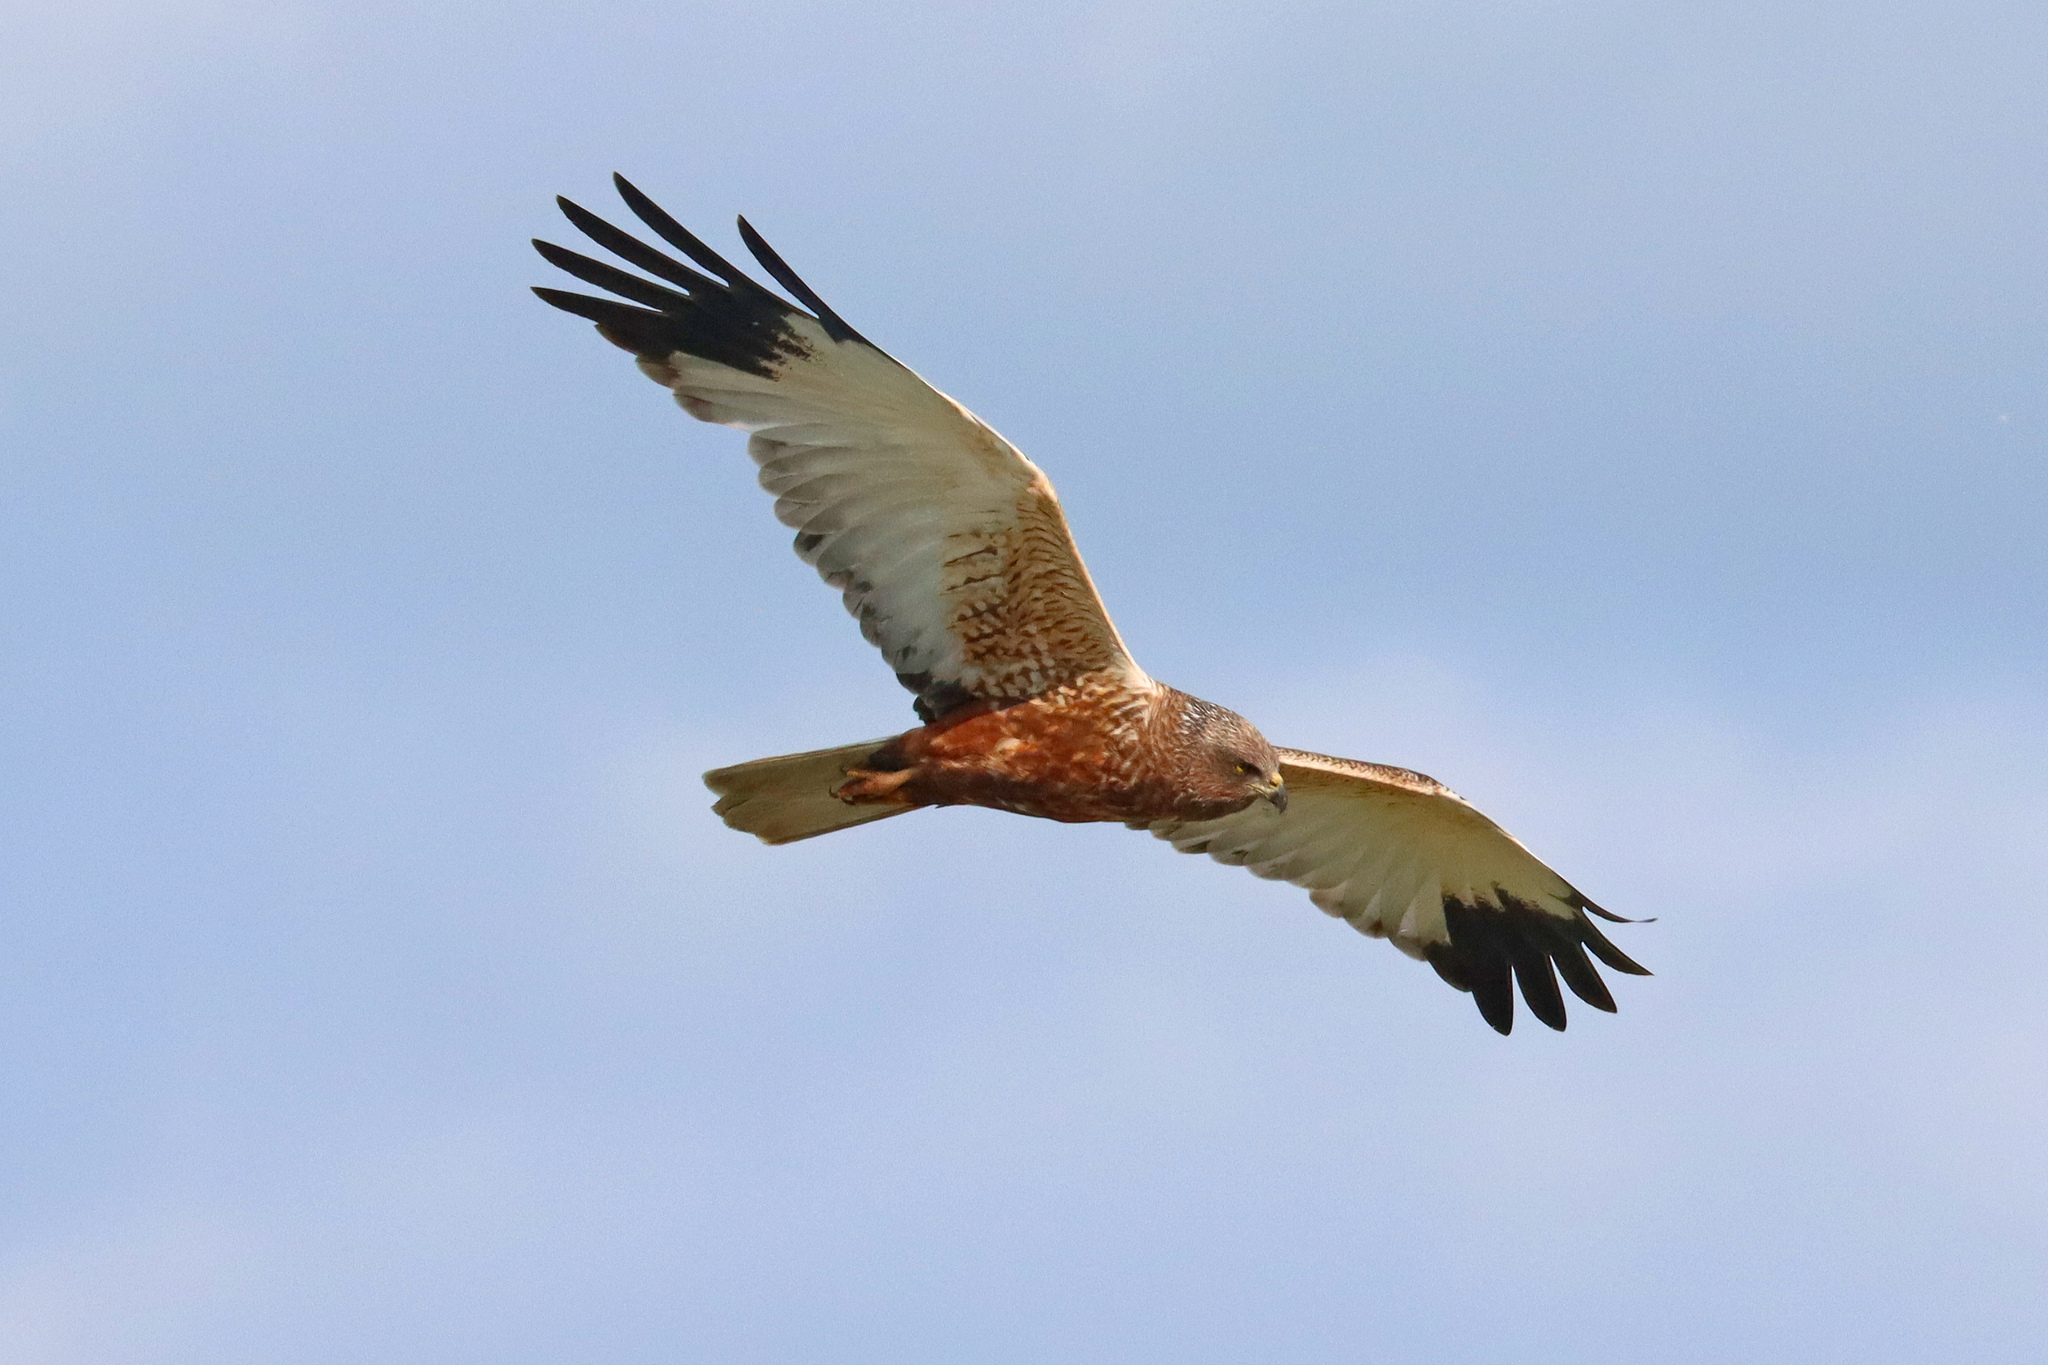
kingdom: Animalia
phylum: Chordata
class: Aves
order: Accipitriformes
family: Accipitridae
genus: Circus
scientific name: Circus aeruginosus
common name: Western marsh harrier
